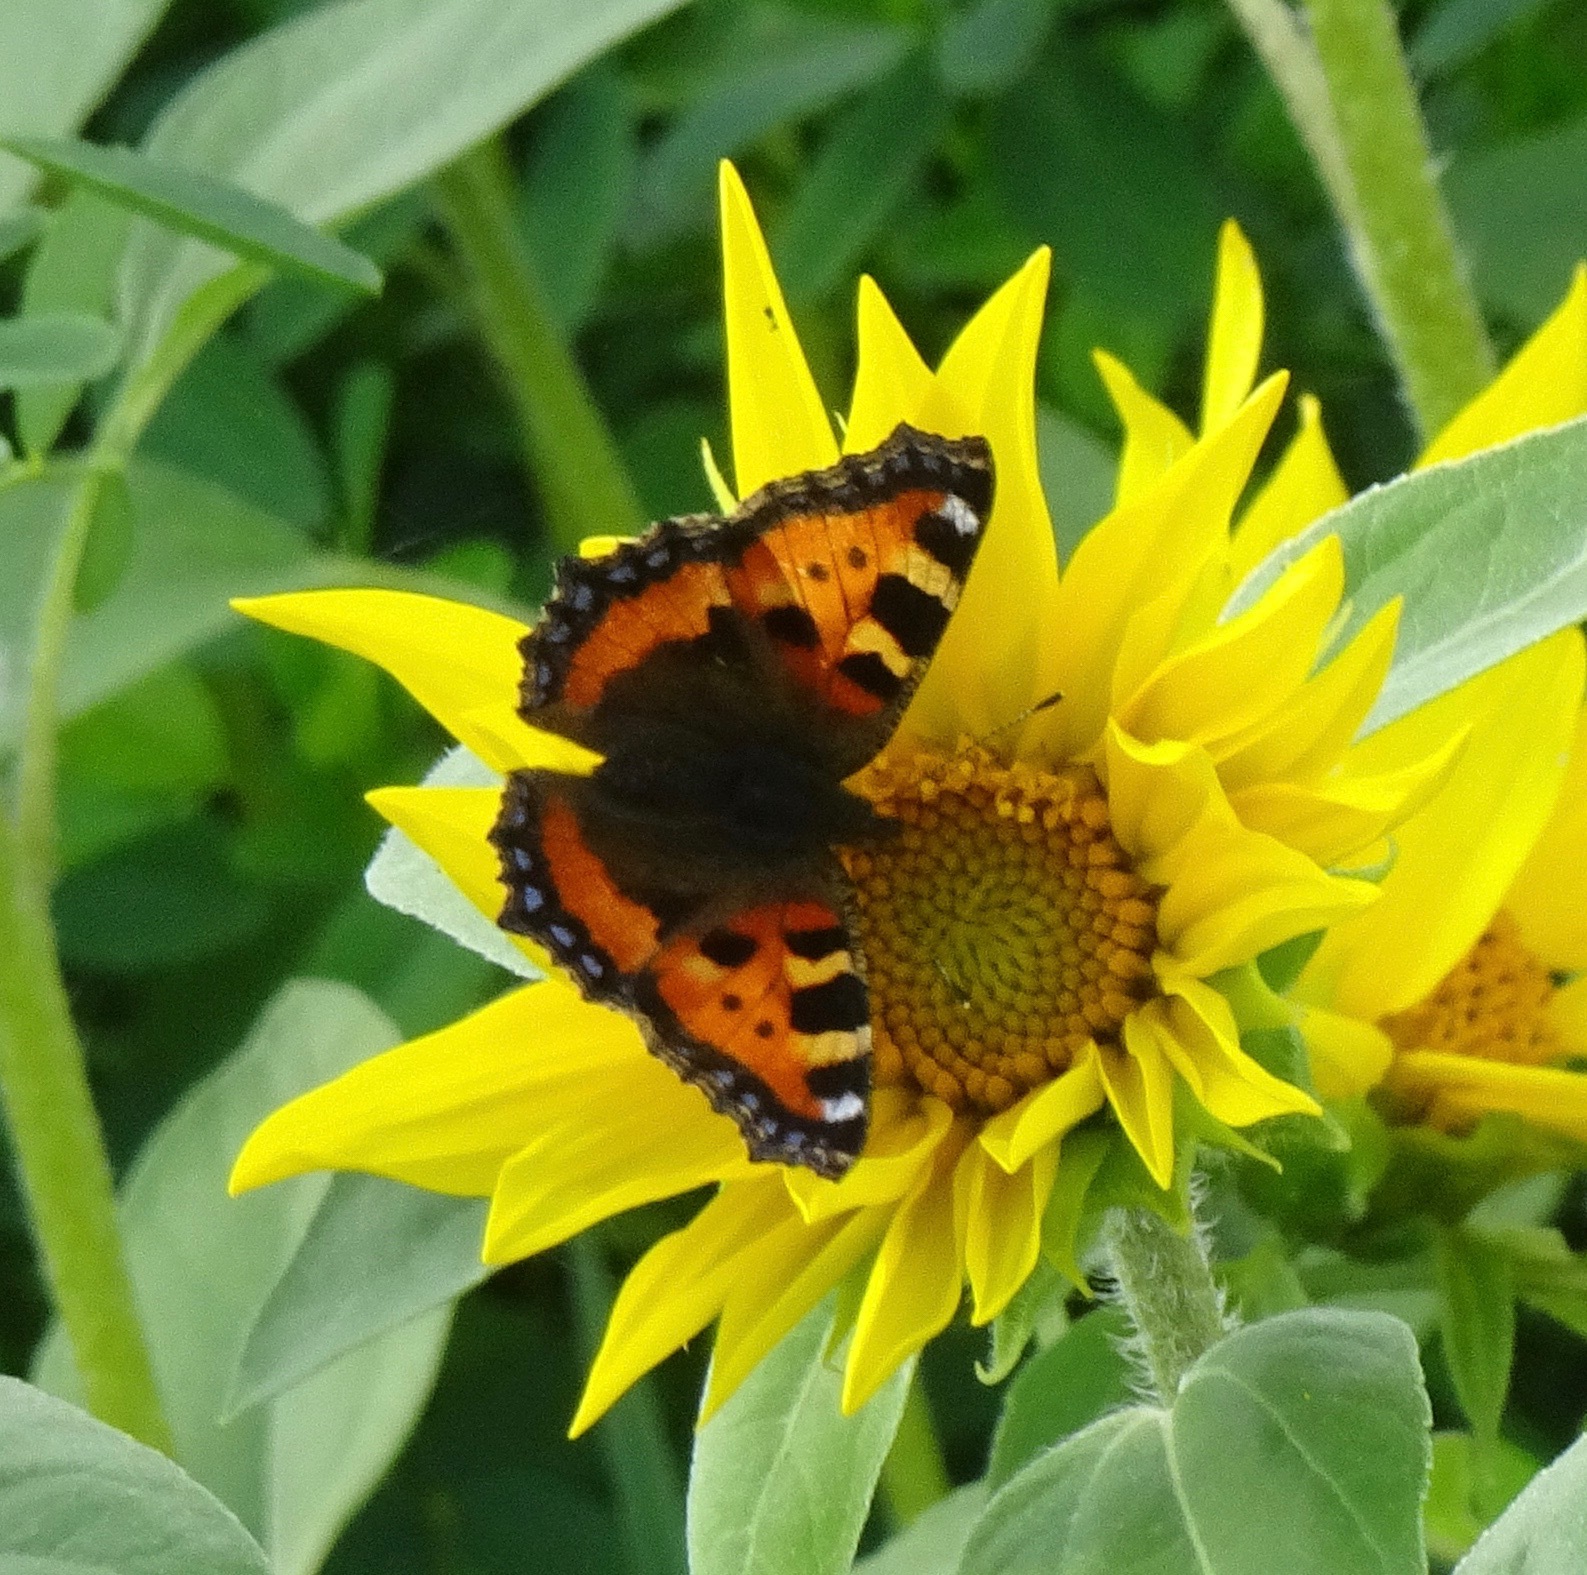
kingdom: Animalia
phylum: Arthropoda
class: Insecta
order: Lepidoptera
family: Nymphalidae
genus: Aglais
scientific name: Aglais urticae
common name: Small tortoiseshell
